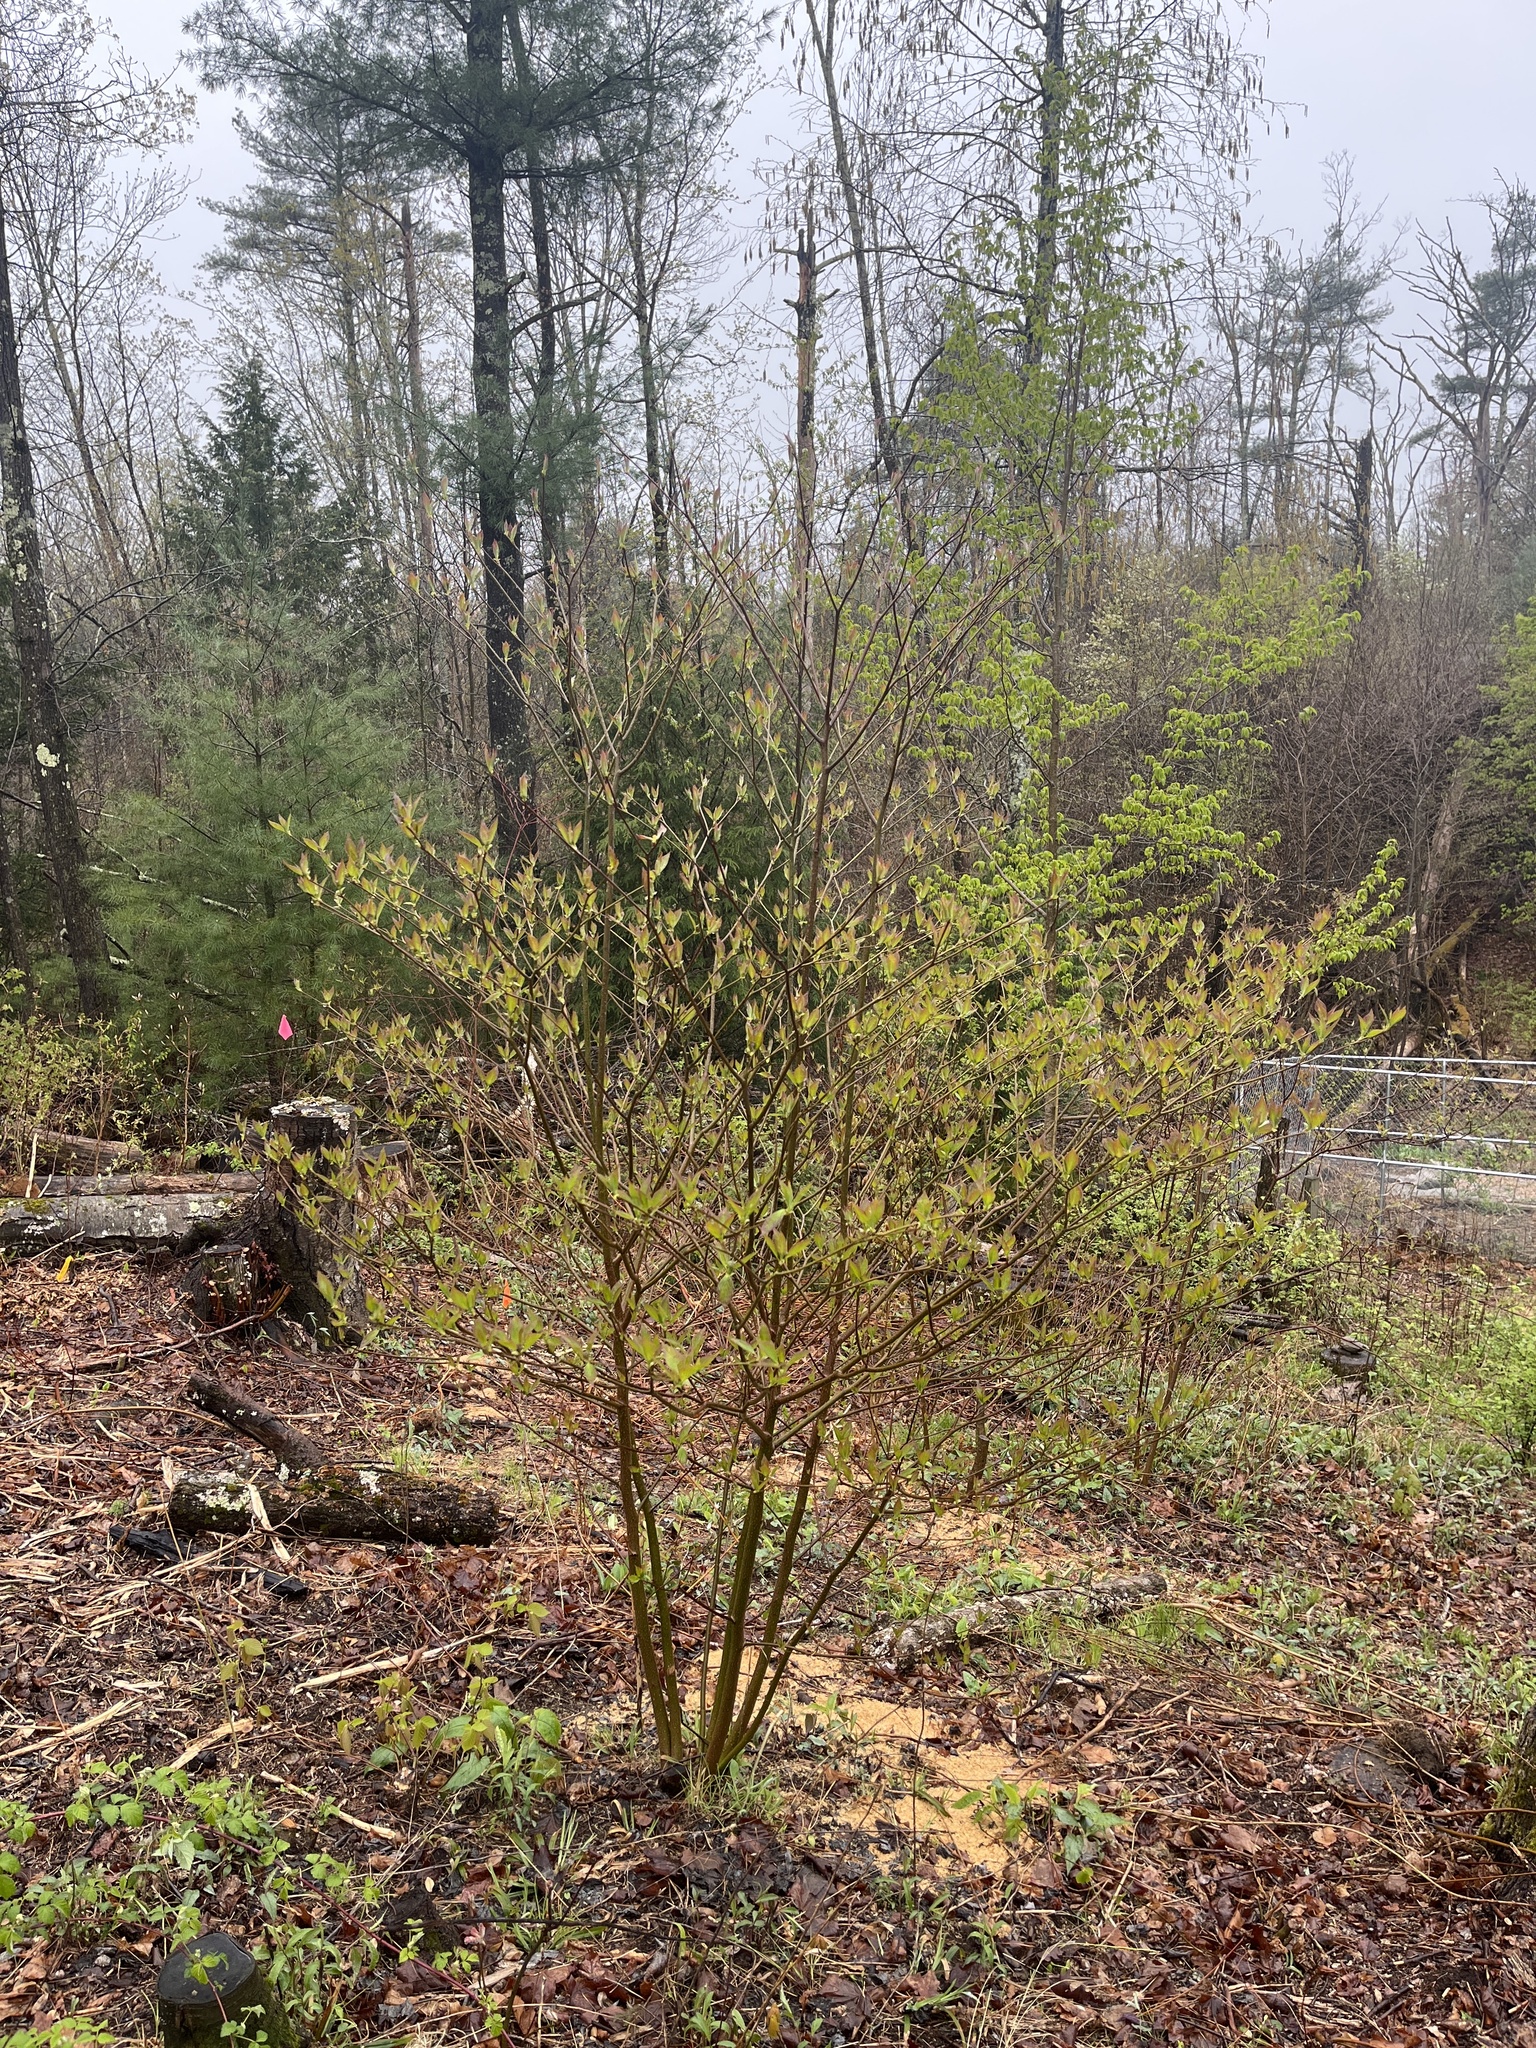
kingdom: Plantae
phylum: Tracheophyta
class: Magnoliopsida
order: Cornales
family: Cornaceae
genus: Cornus
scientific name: Cornus alternifolia
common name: Pagoda dogwood
